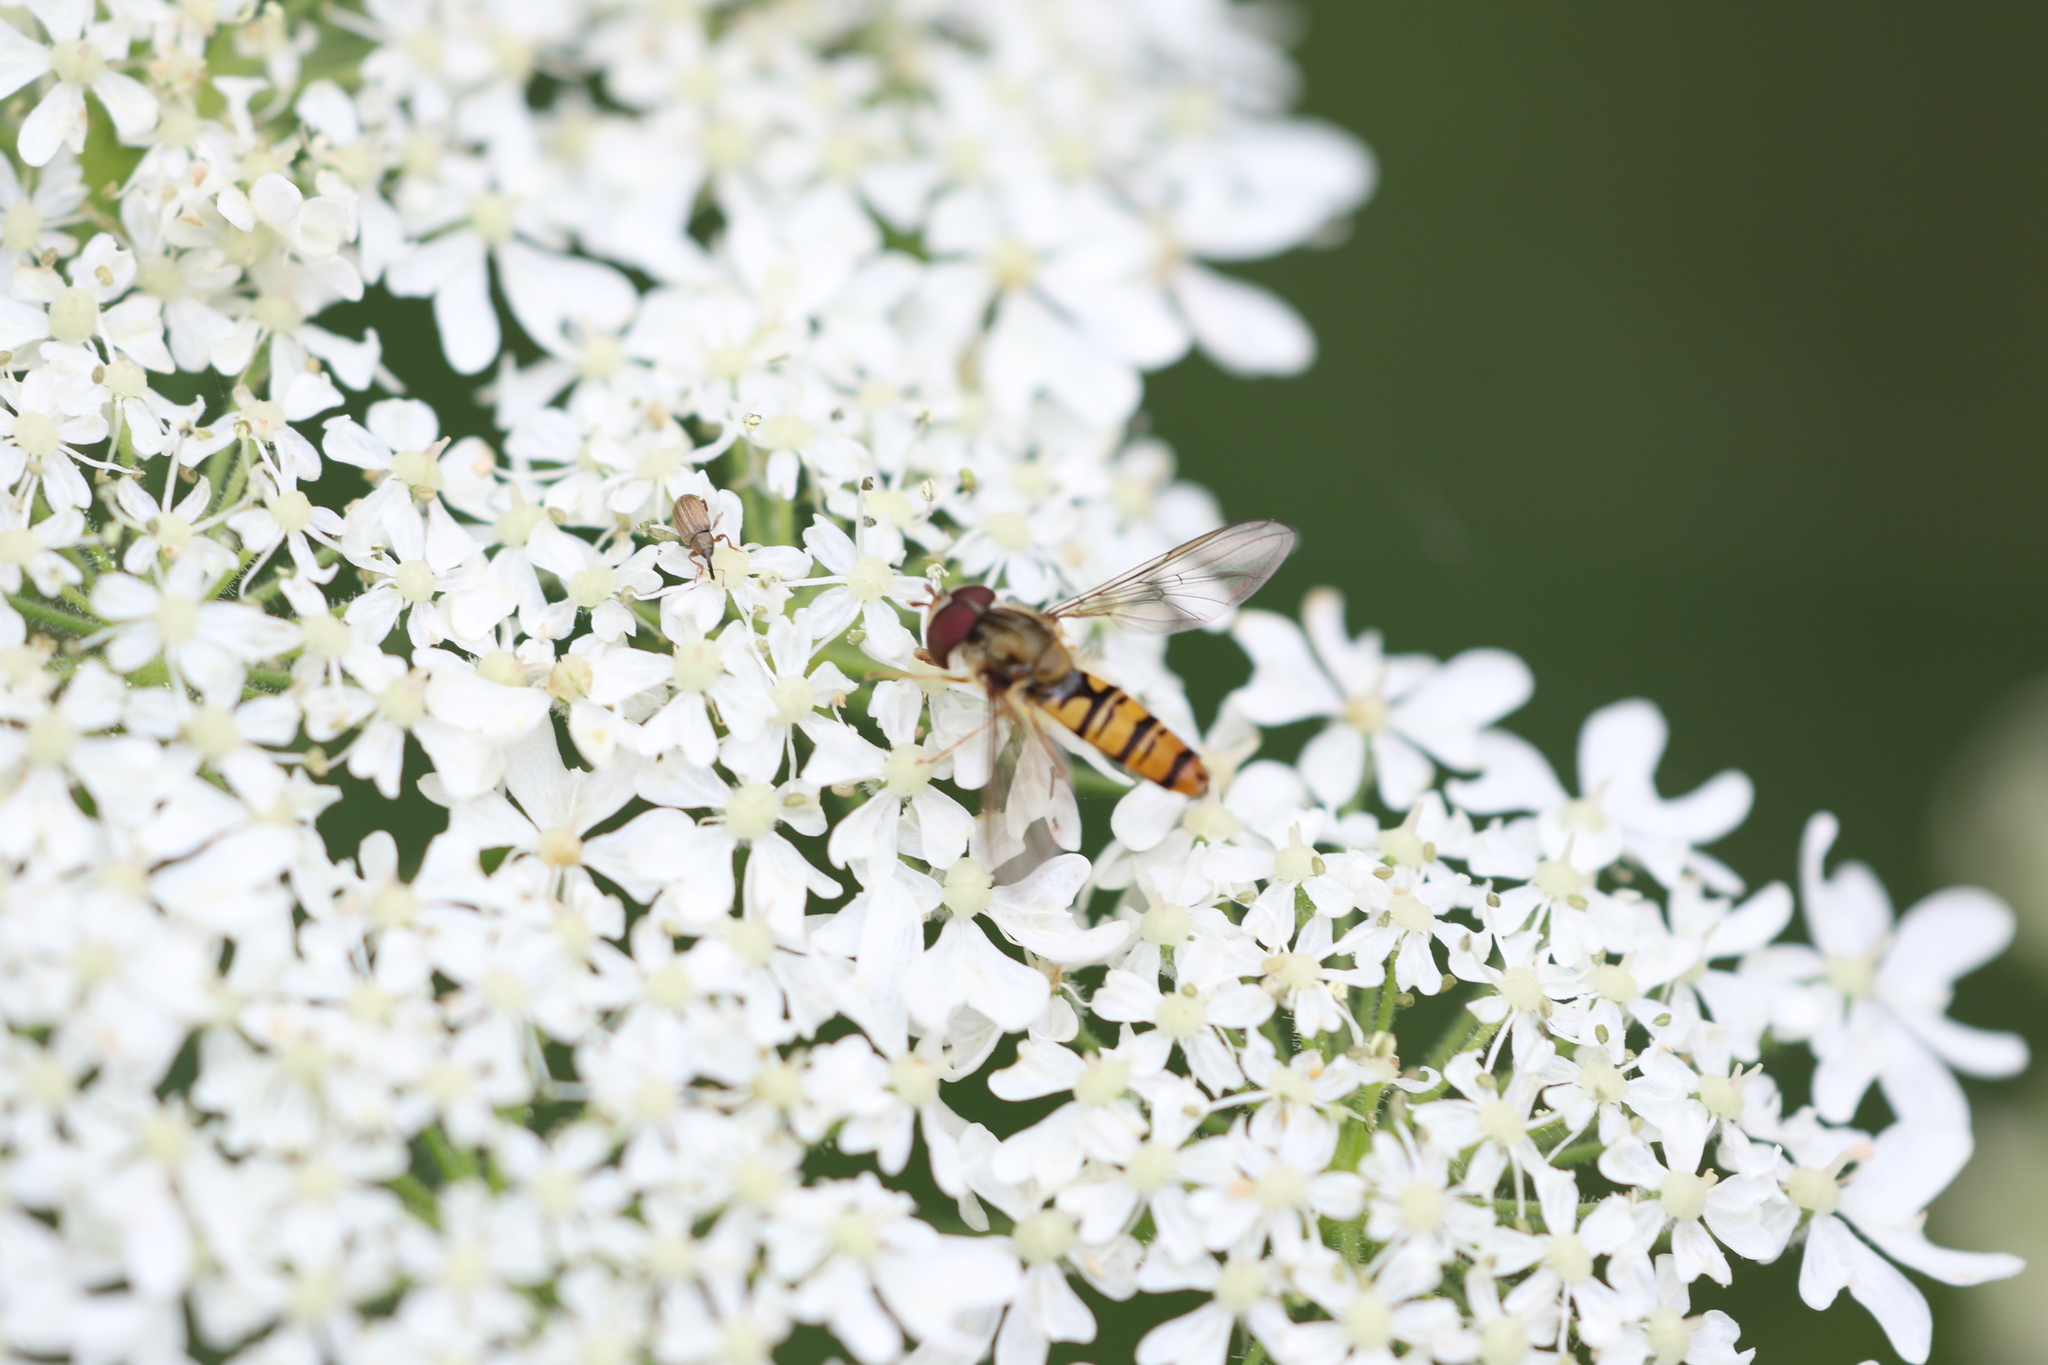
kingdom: Animalia
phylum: Arthropoda
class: Insecta
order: Diptera
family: Syrphidae
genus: Episyrphus
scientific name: Episyrphus balteatus
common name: Marmalade hoverfly
